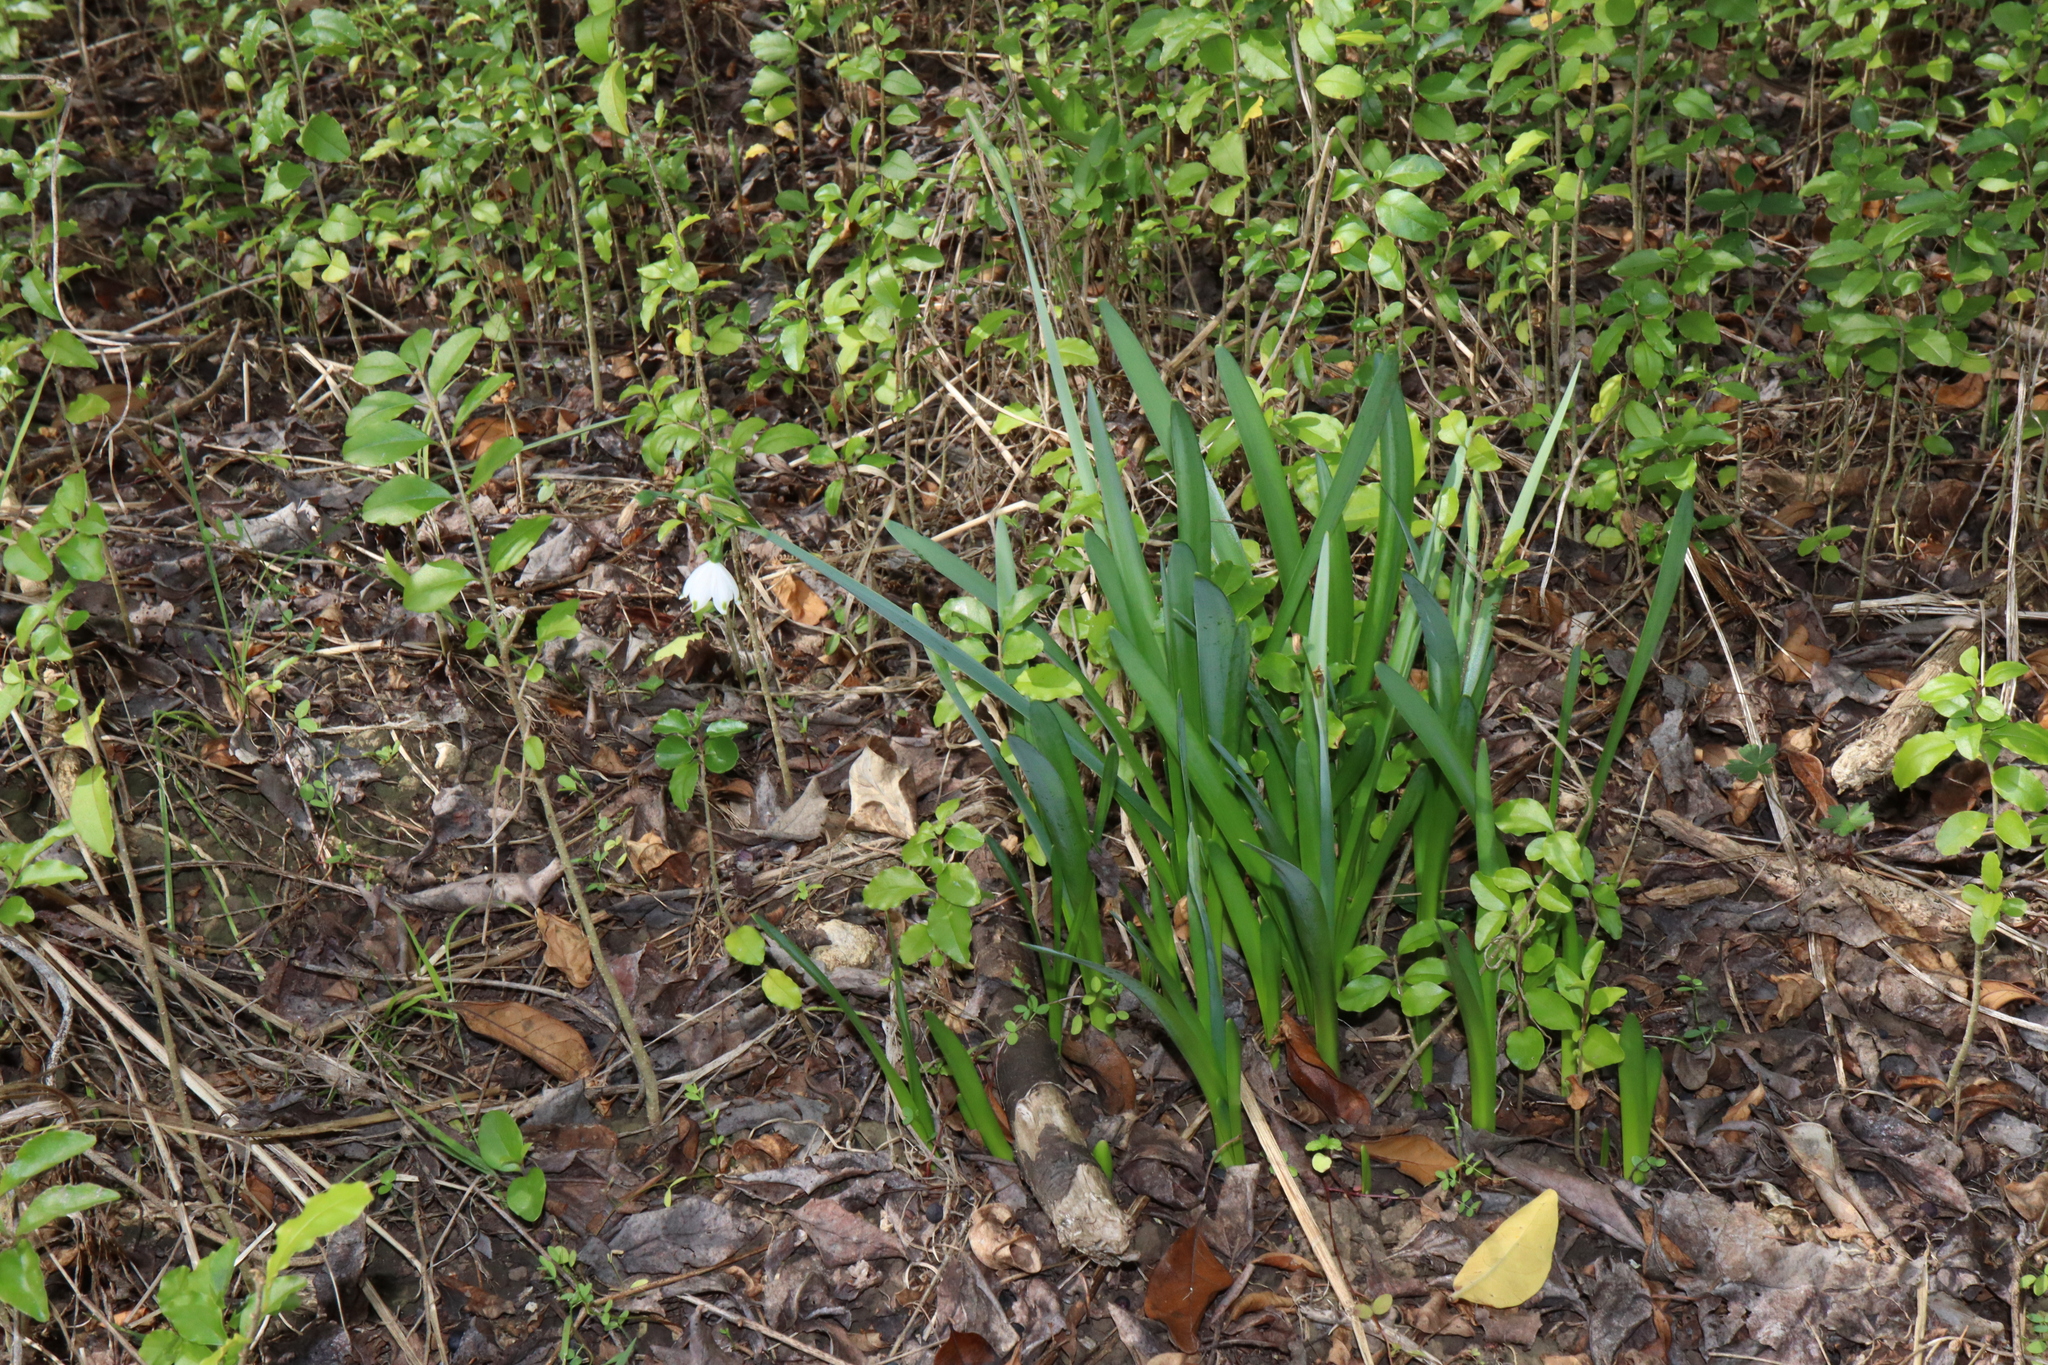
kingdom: Plantae
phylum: Tracheophyta
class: Liliopsida
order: Asparagales
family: Amaryllidaceae
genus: Leucojum
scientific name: Leucojum aestivum
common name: Summer snowflake
